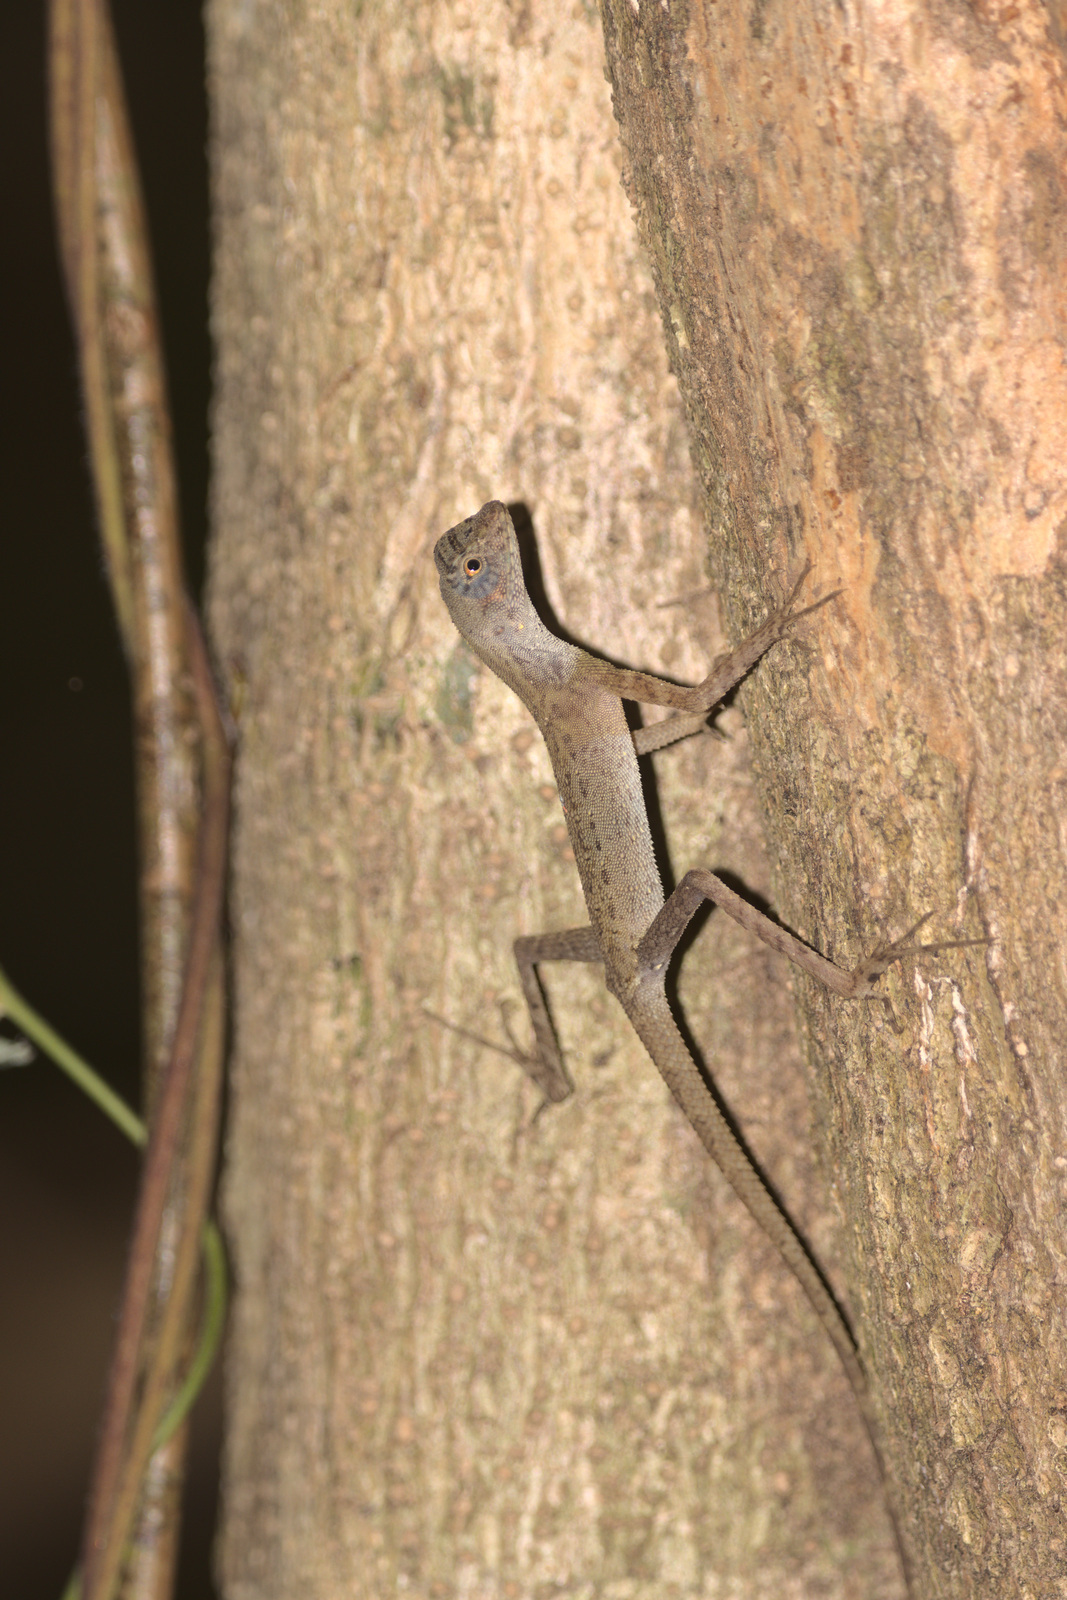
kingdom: Animalia
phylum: Chordata
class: Squamata
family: Agamidae
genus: Aphaniotis
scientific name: Aphaniotis fusca
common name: Dusky earless agama
